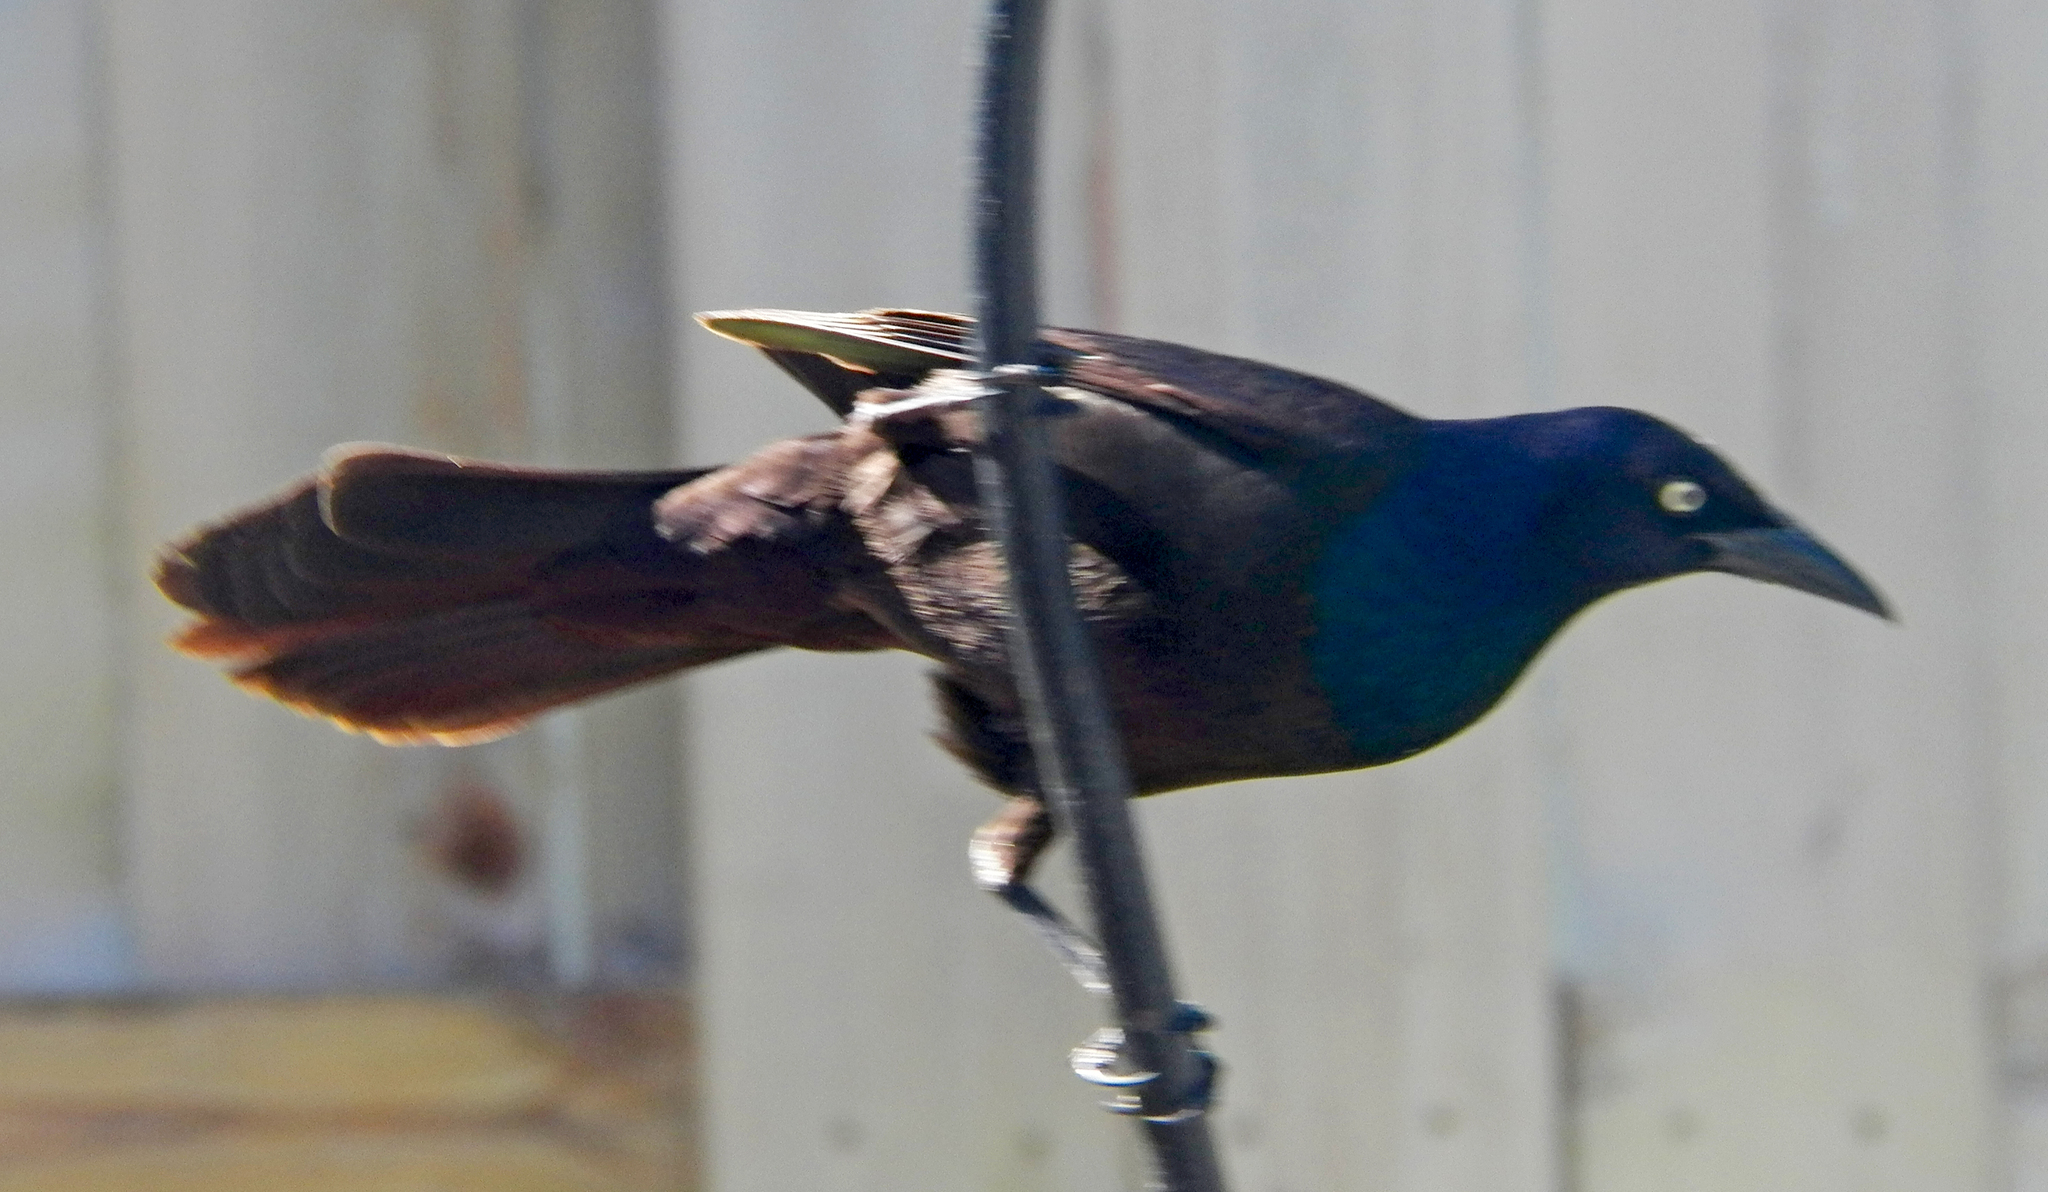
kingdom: Animalia
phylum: Chordata
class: Aves
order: Passeriformes
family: Icteridae
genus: Quiscalus
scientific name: Quiscalus quiscula
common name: Common grackle
